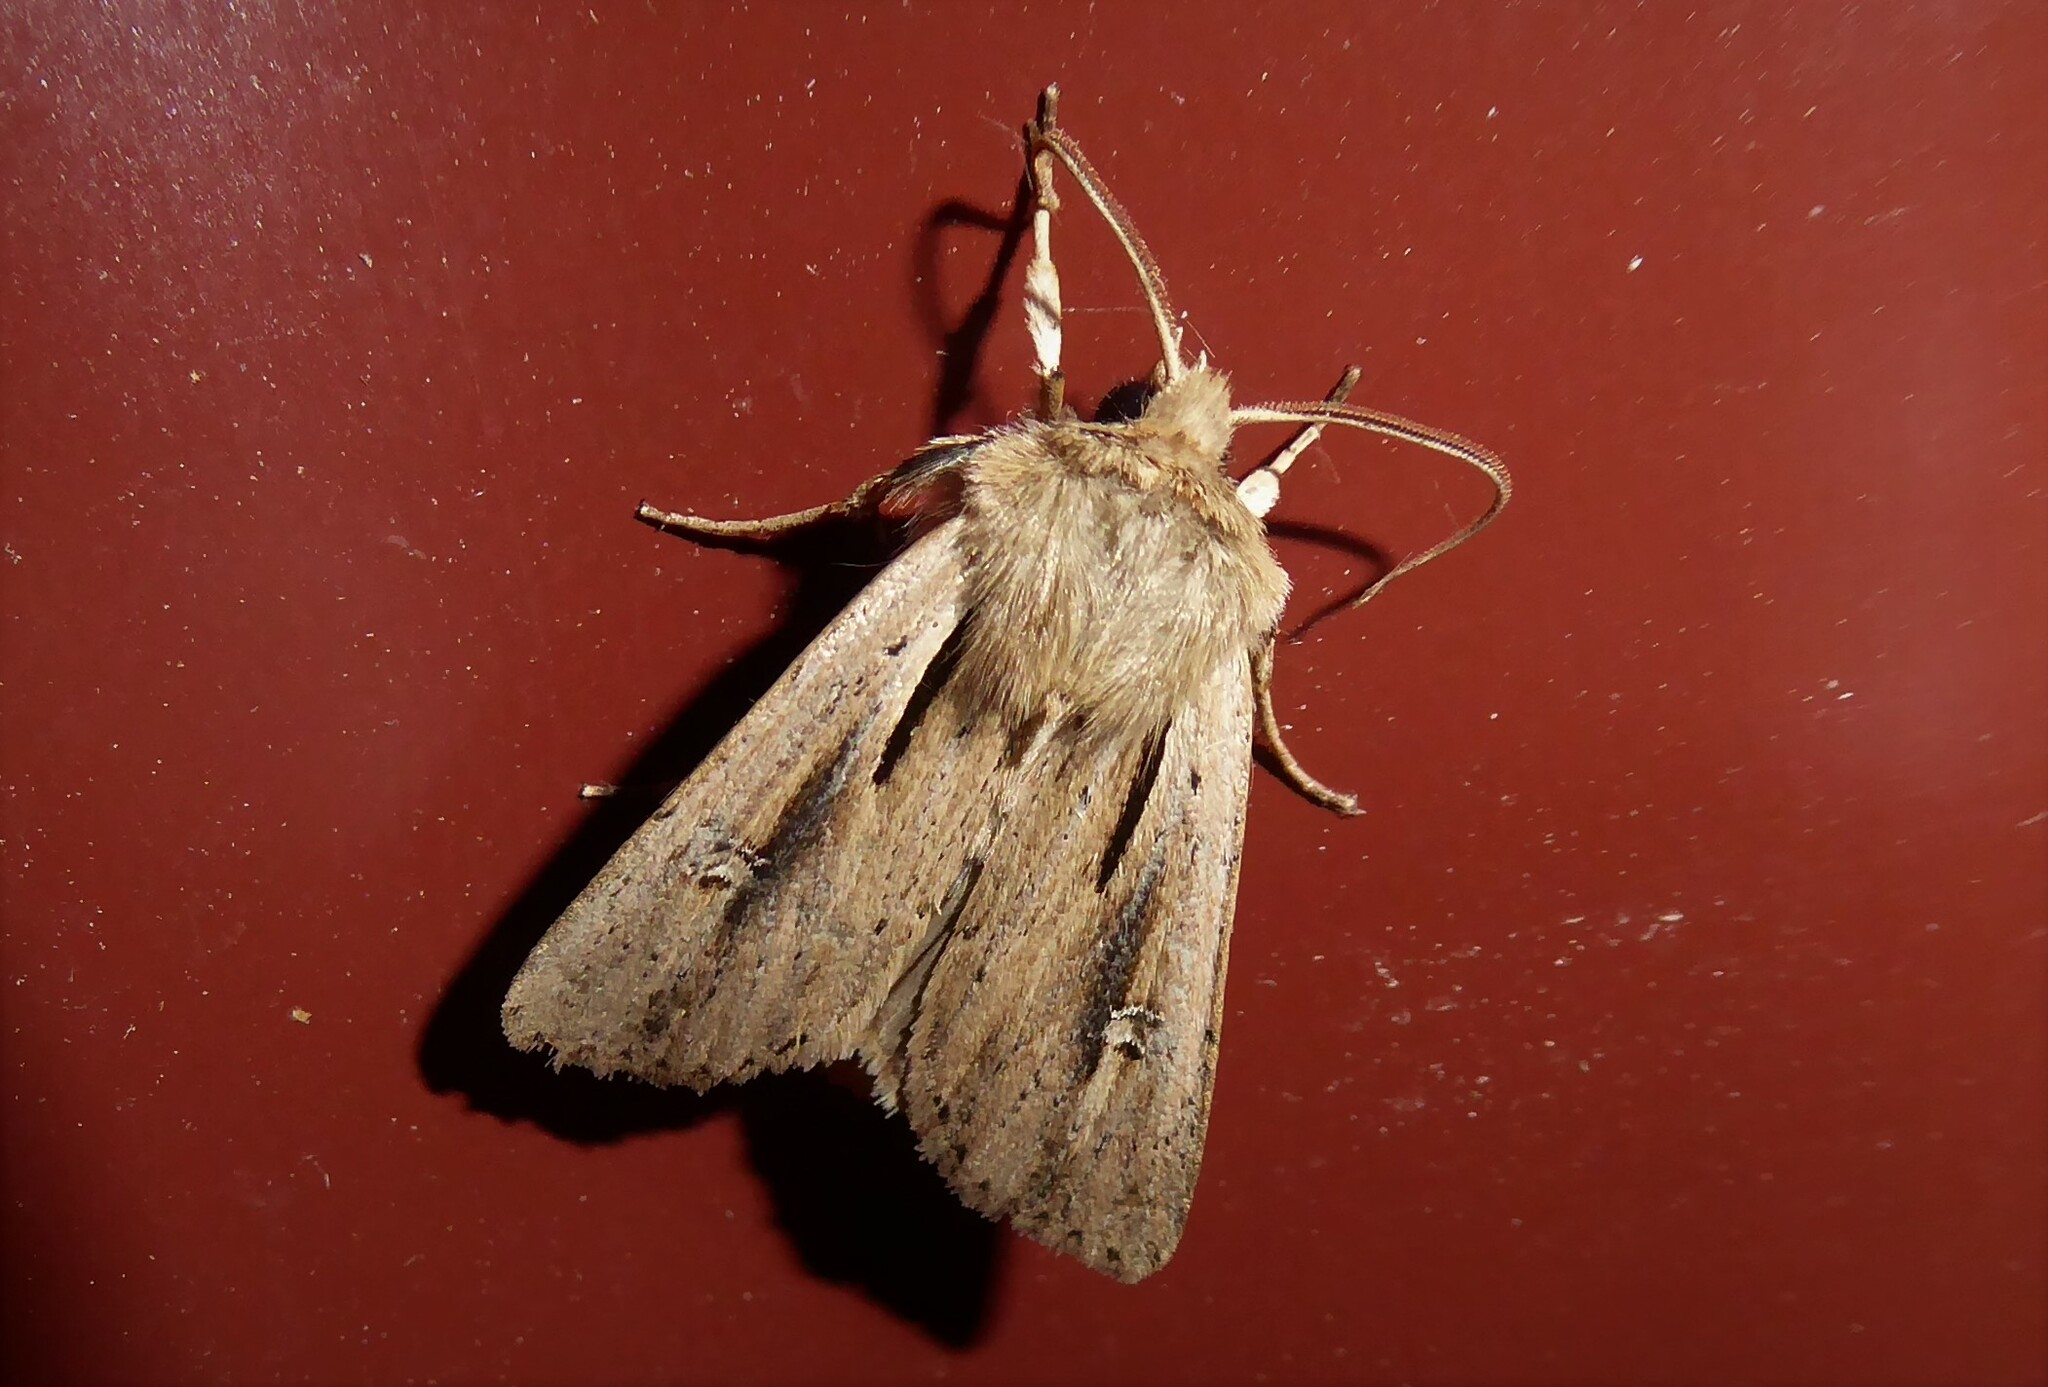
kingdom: Animalia
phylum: Arthropoda
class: Insecta
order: Lepidoptera
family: Noctuidae
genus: Ichneutica
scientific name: Ichneutica propria
